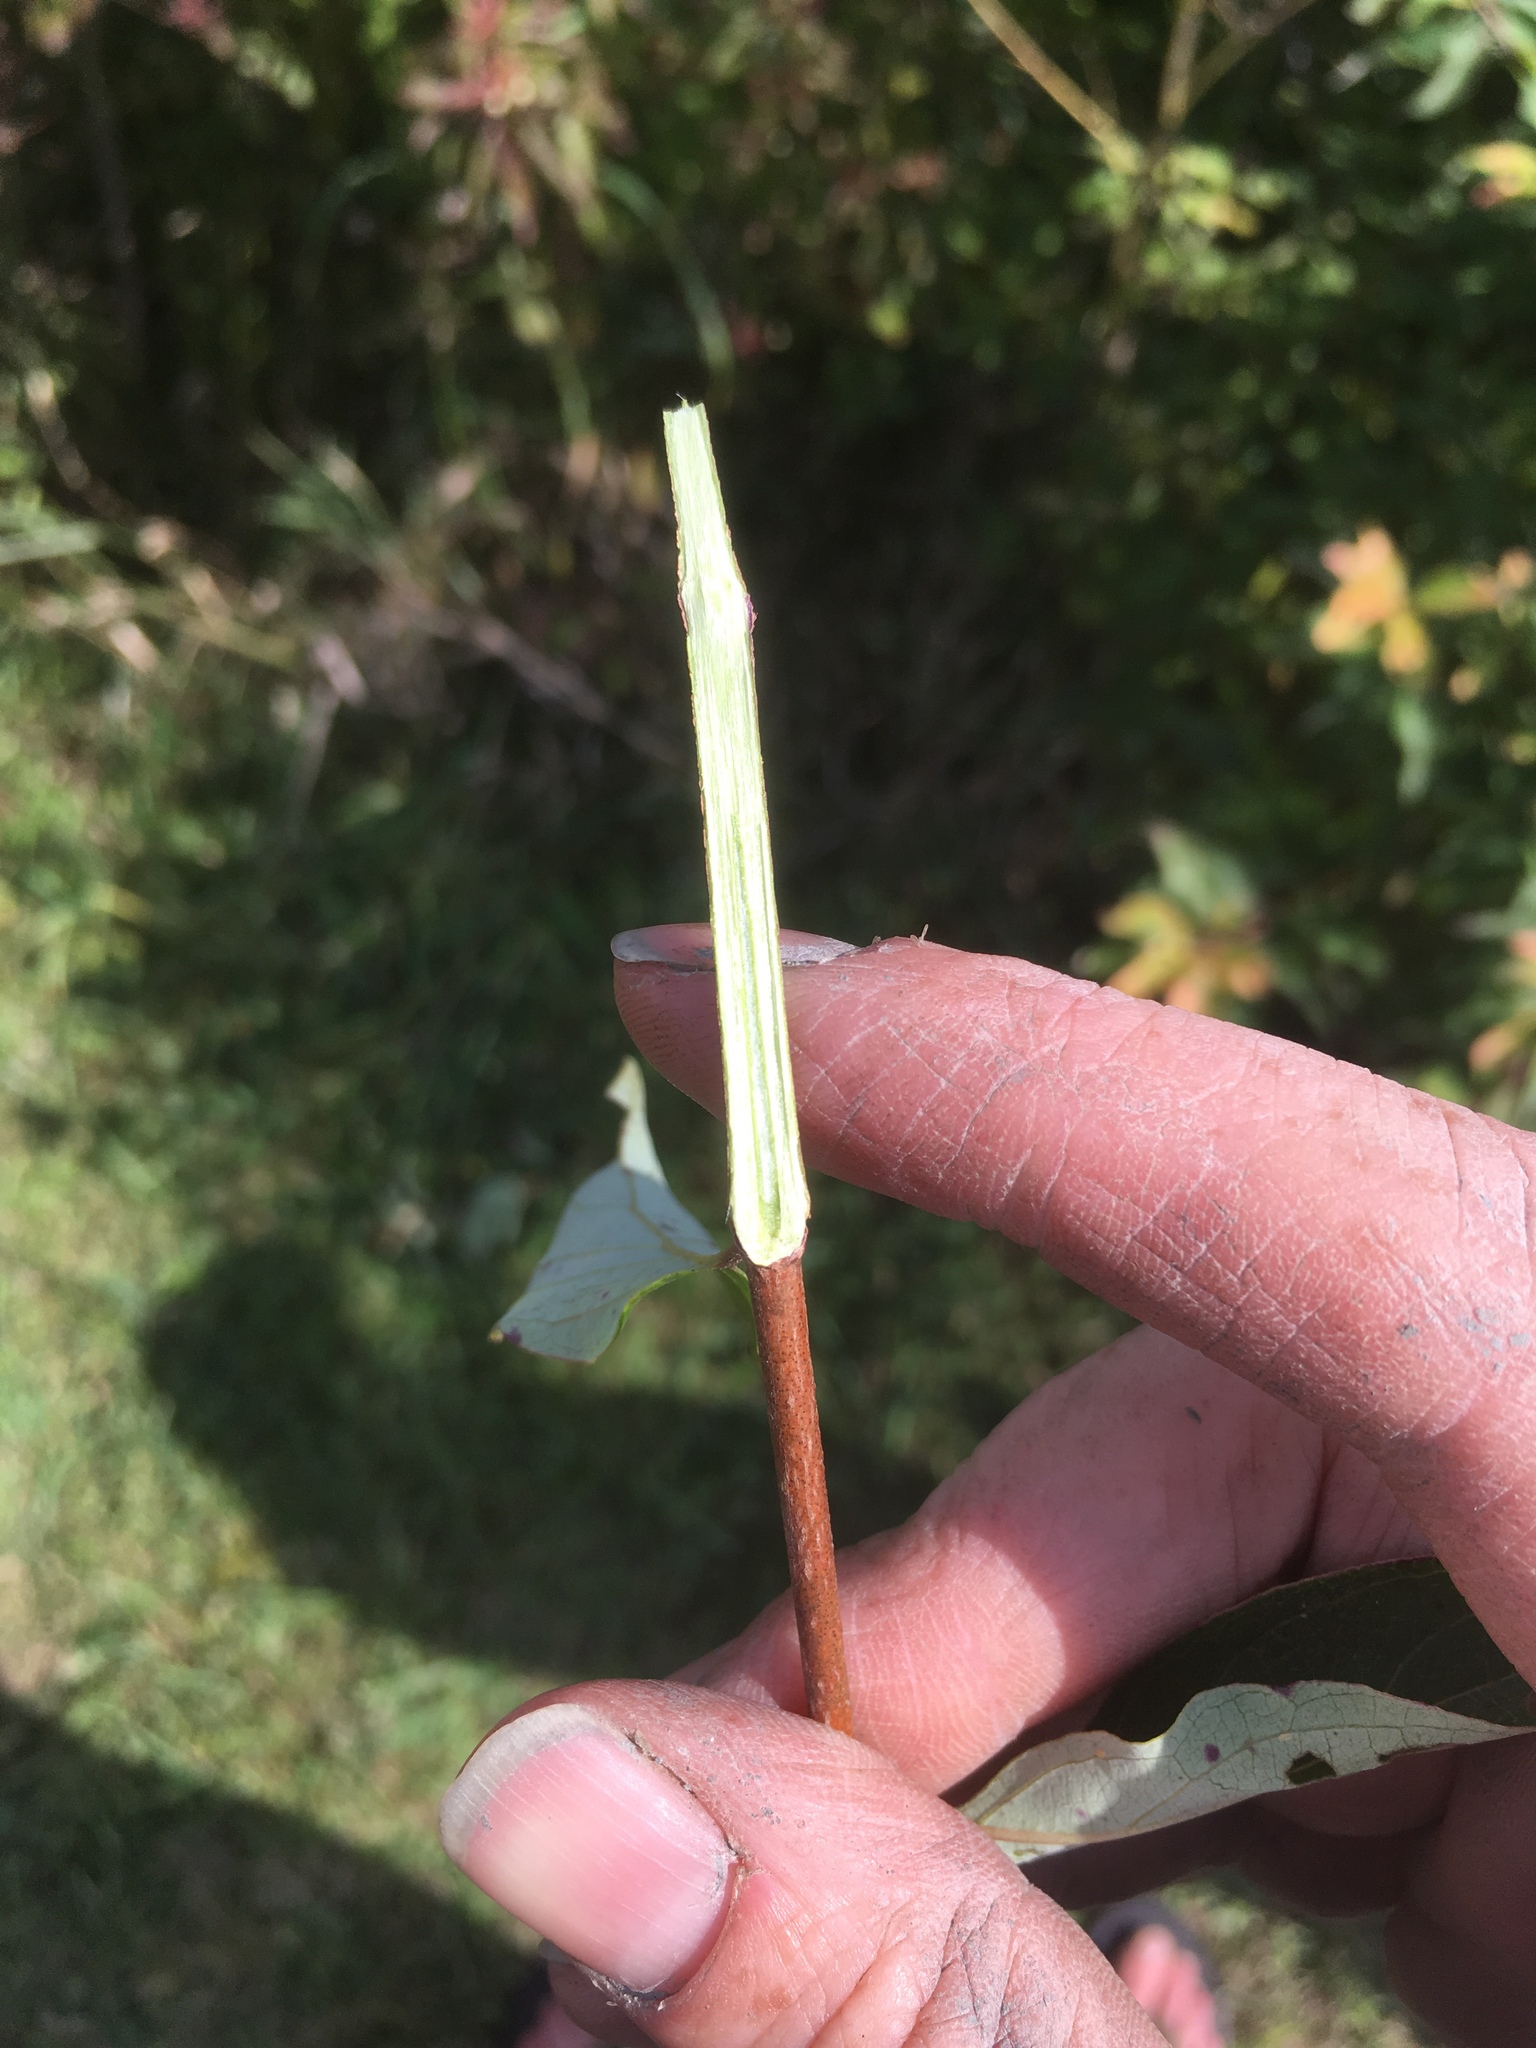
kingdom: Plantae
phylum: Tracheophyta
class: Magnoliopsida
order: Cornales
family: Cornaceae
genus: Cornus
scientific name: Cornus amomum
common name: Silky dogwood
